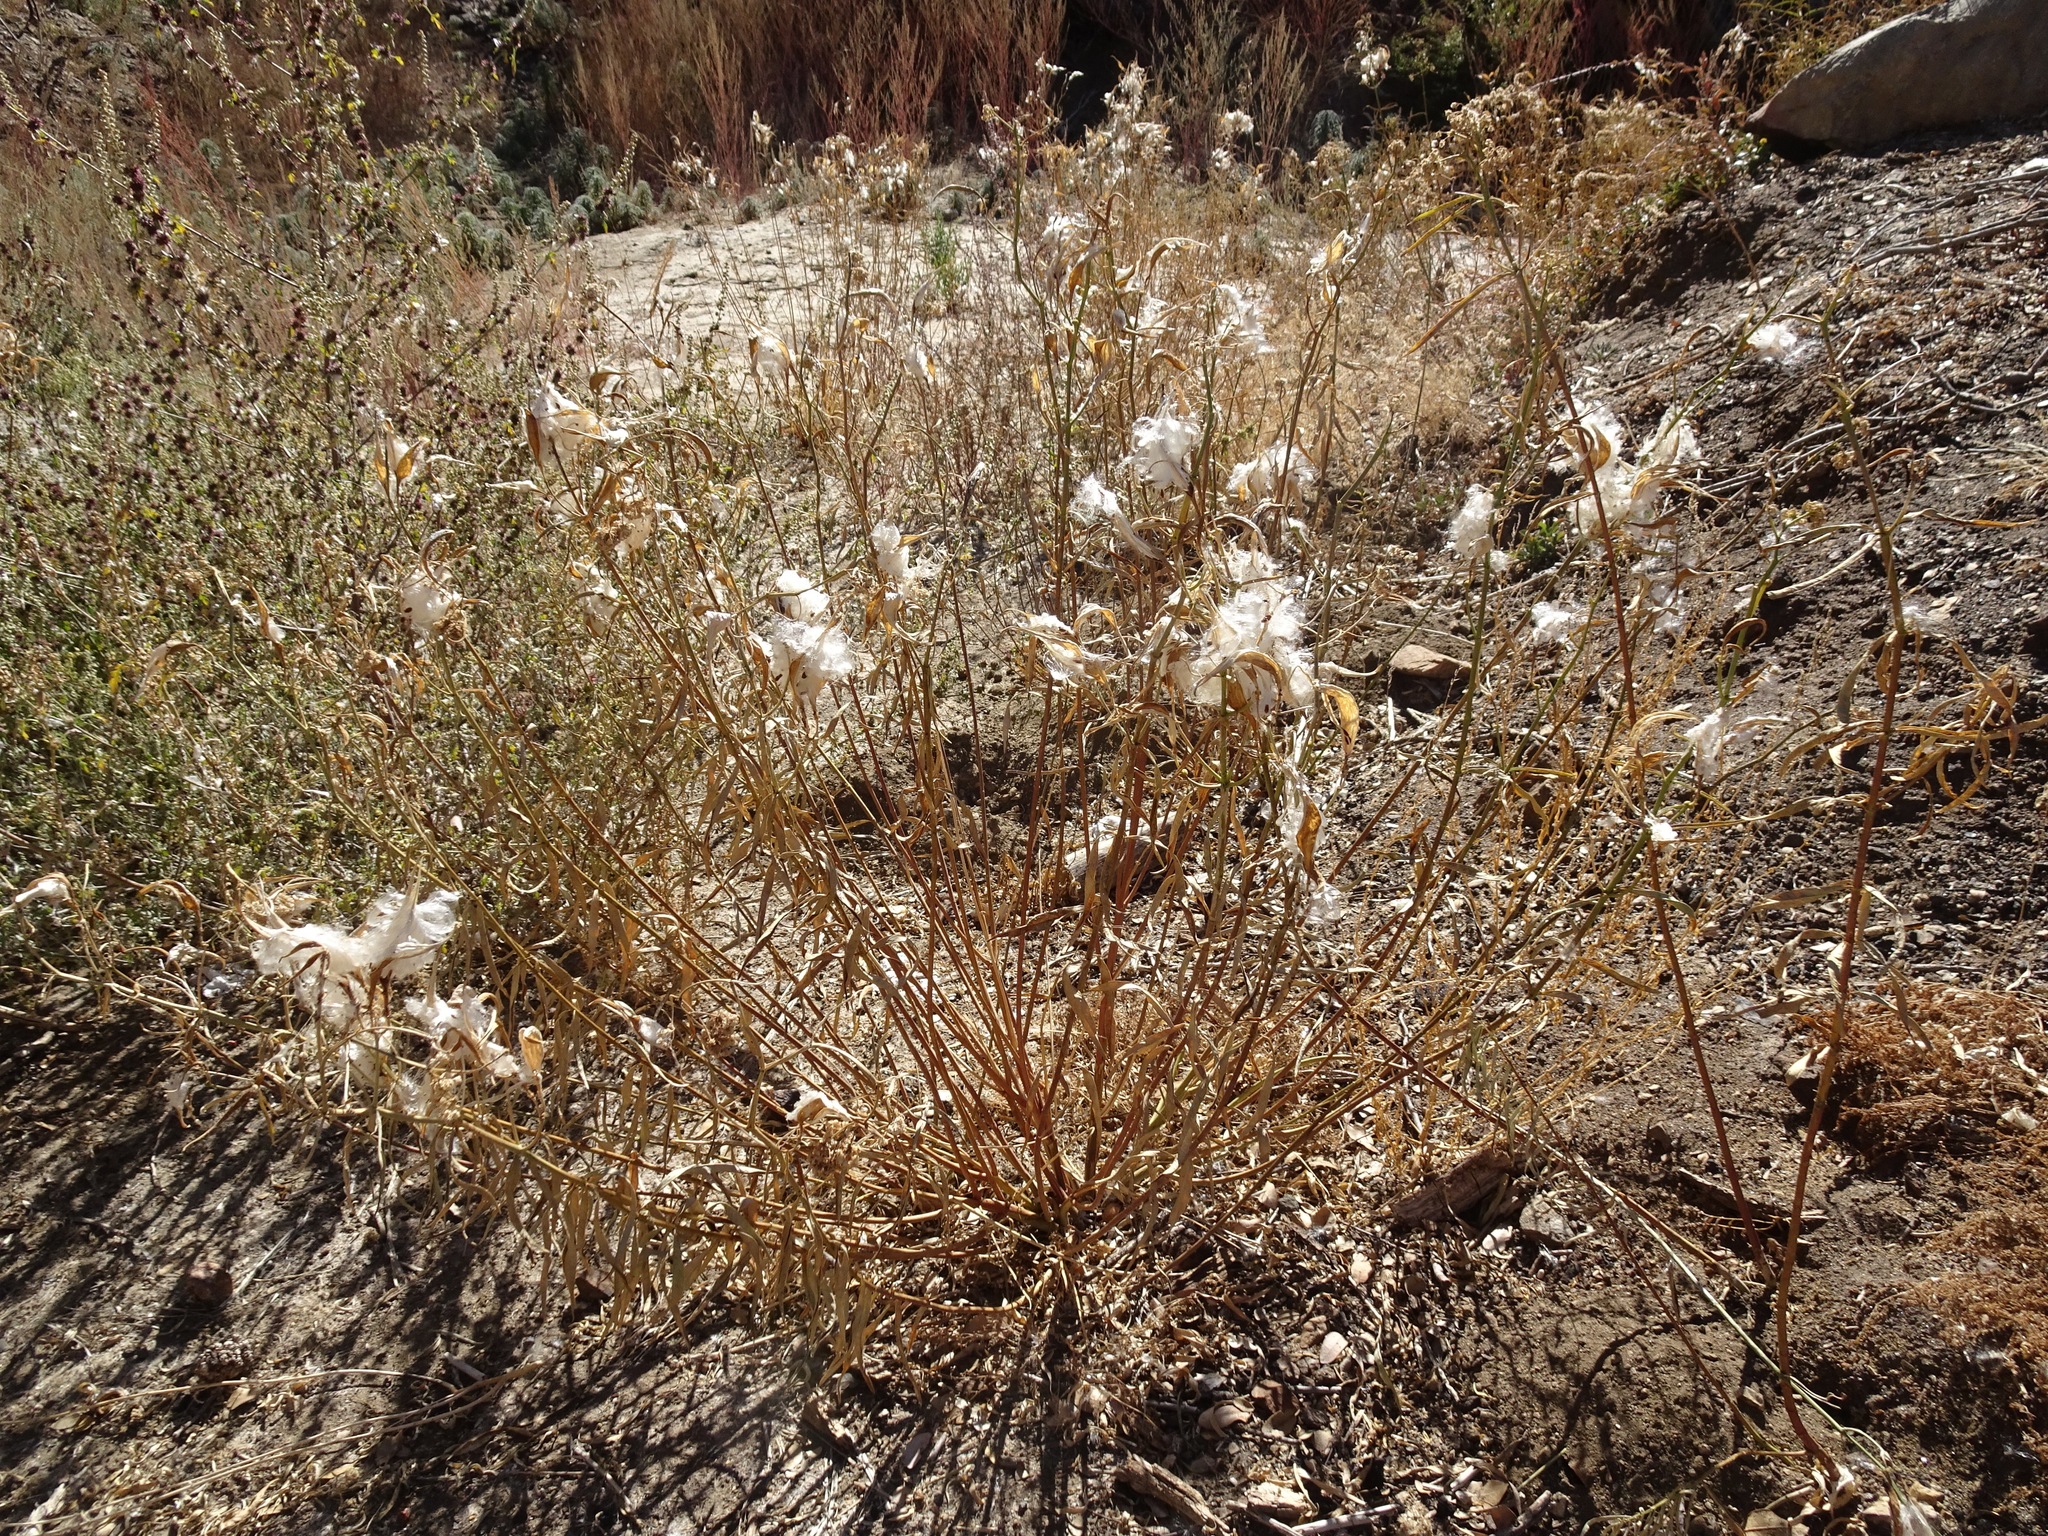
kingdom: Plantae
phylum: Tracheophyta
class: Magnoliopsida
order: Gentianales
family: Apocynaceae
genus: Asclepias
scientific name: Asclepias fascicularis
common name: Mexican milkweed
